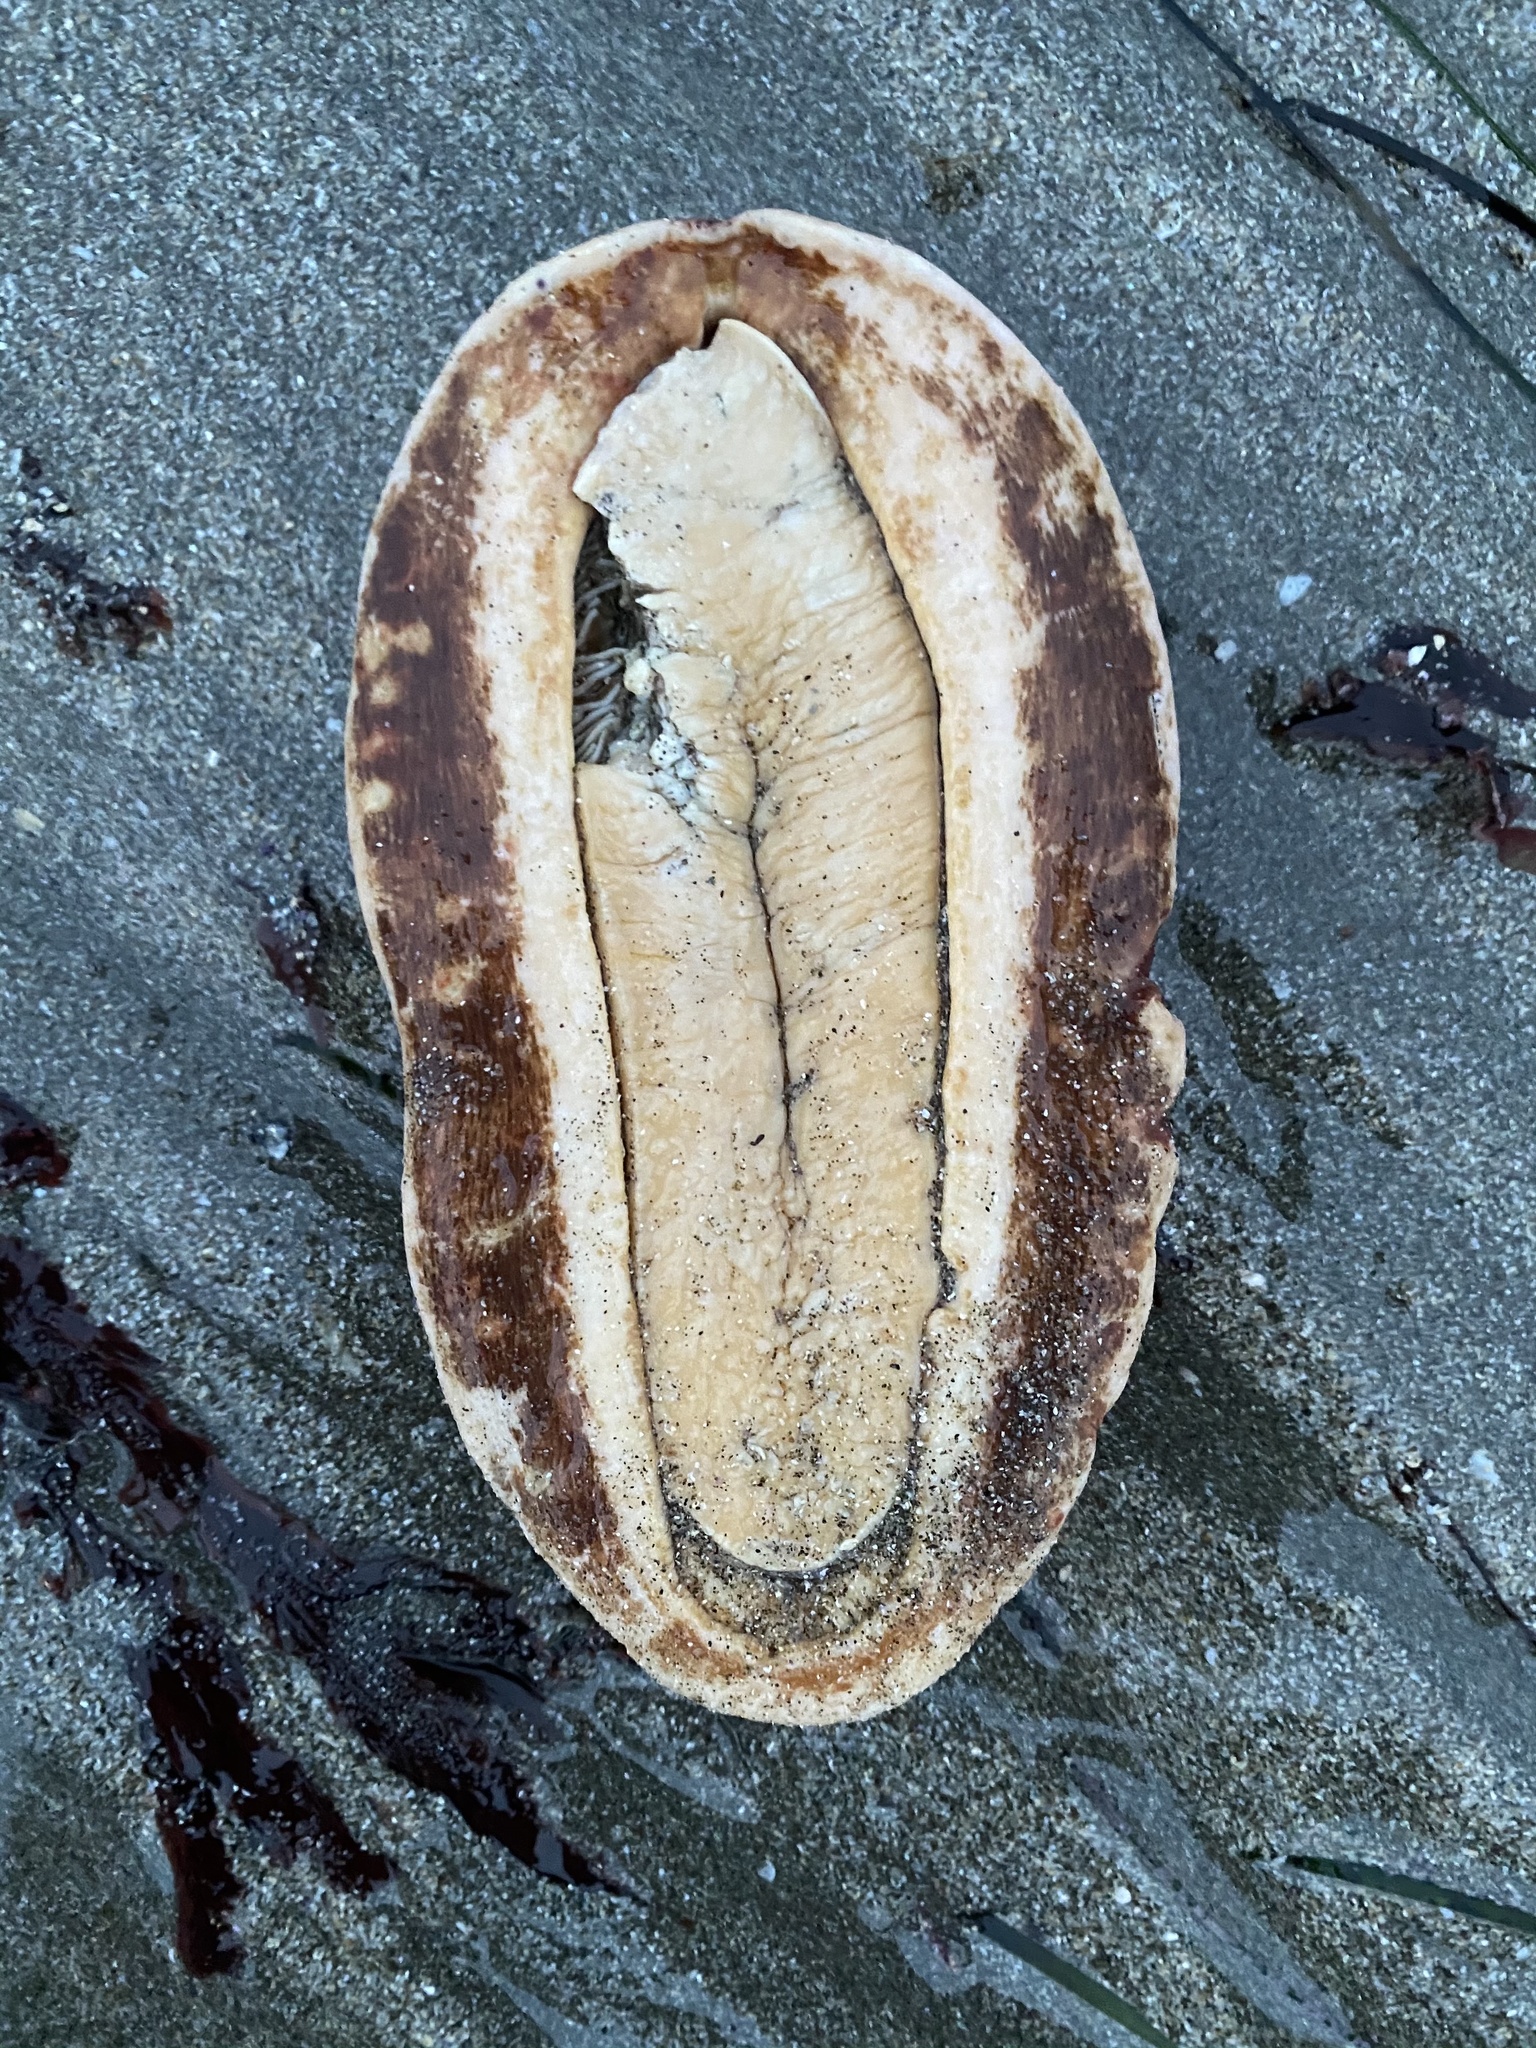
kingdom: Animalia
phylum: Mollusca
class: Polyplacophora
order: Chitonida
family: Acanthochitonidae
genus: Cryptochiton
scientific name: Cryptochiton stelleri
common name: Giant pacific chiton
